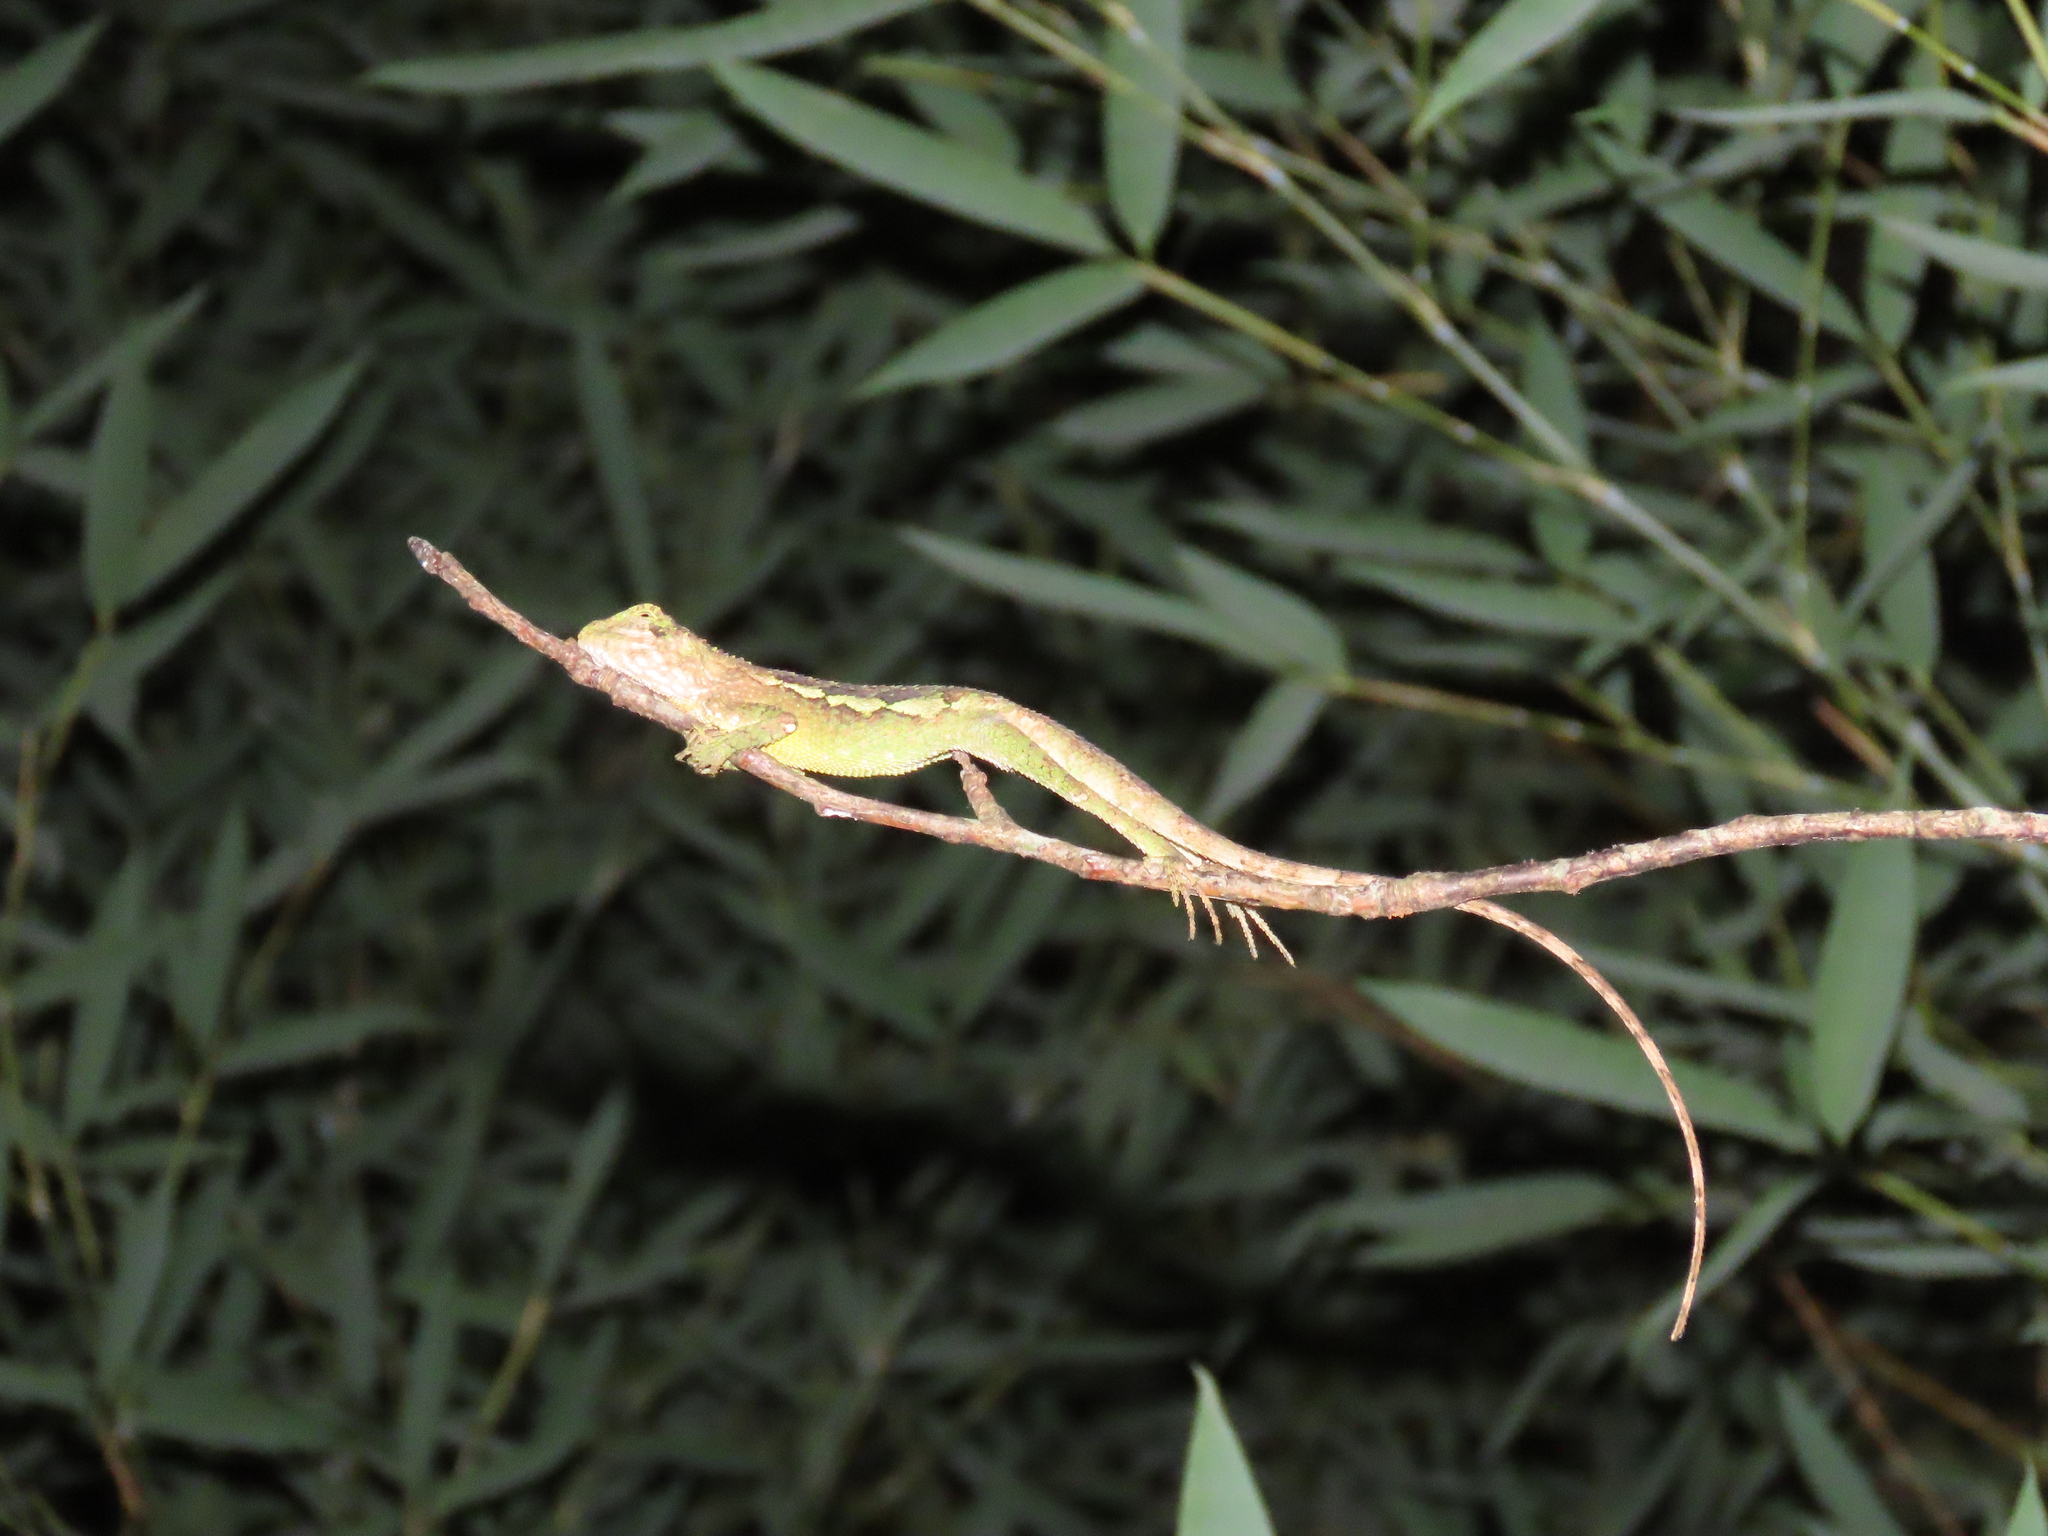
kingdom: Fungi
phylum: Basidiomycota
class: Agaricomycetes
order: Boletales
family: Diplocystidiaceae
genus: Diploderma
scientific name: Diploderma polygonatum
